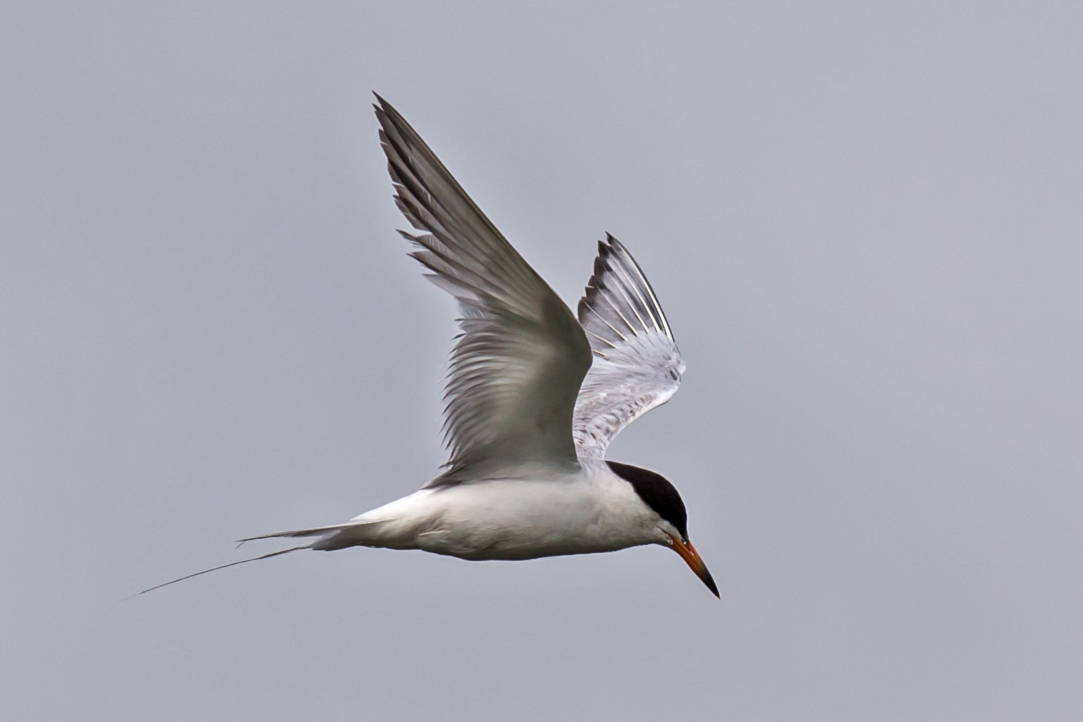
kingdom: Animalia
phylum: Chordata
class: Aves
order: Charadriiformes
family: Laridae
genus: Sterna
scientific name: Sterna forsteri
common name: Forster's tern
